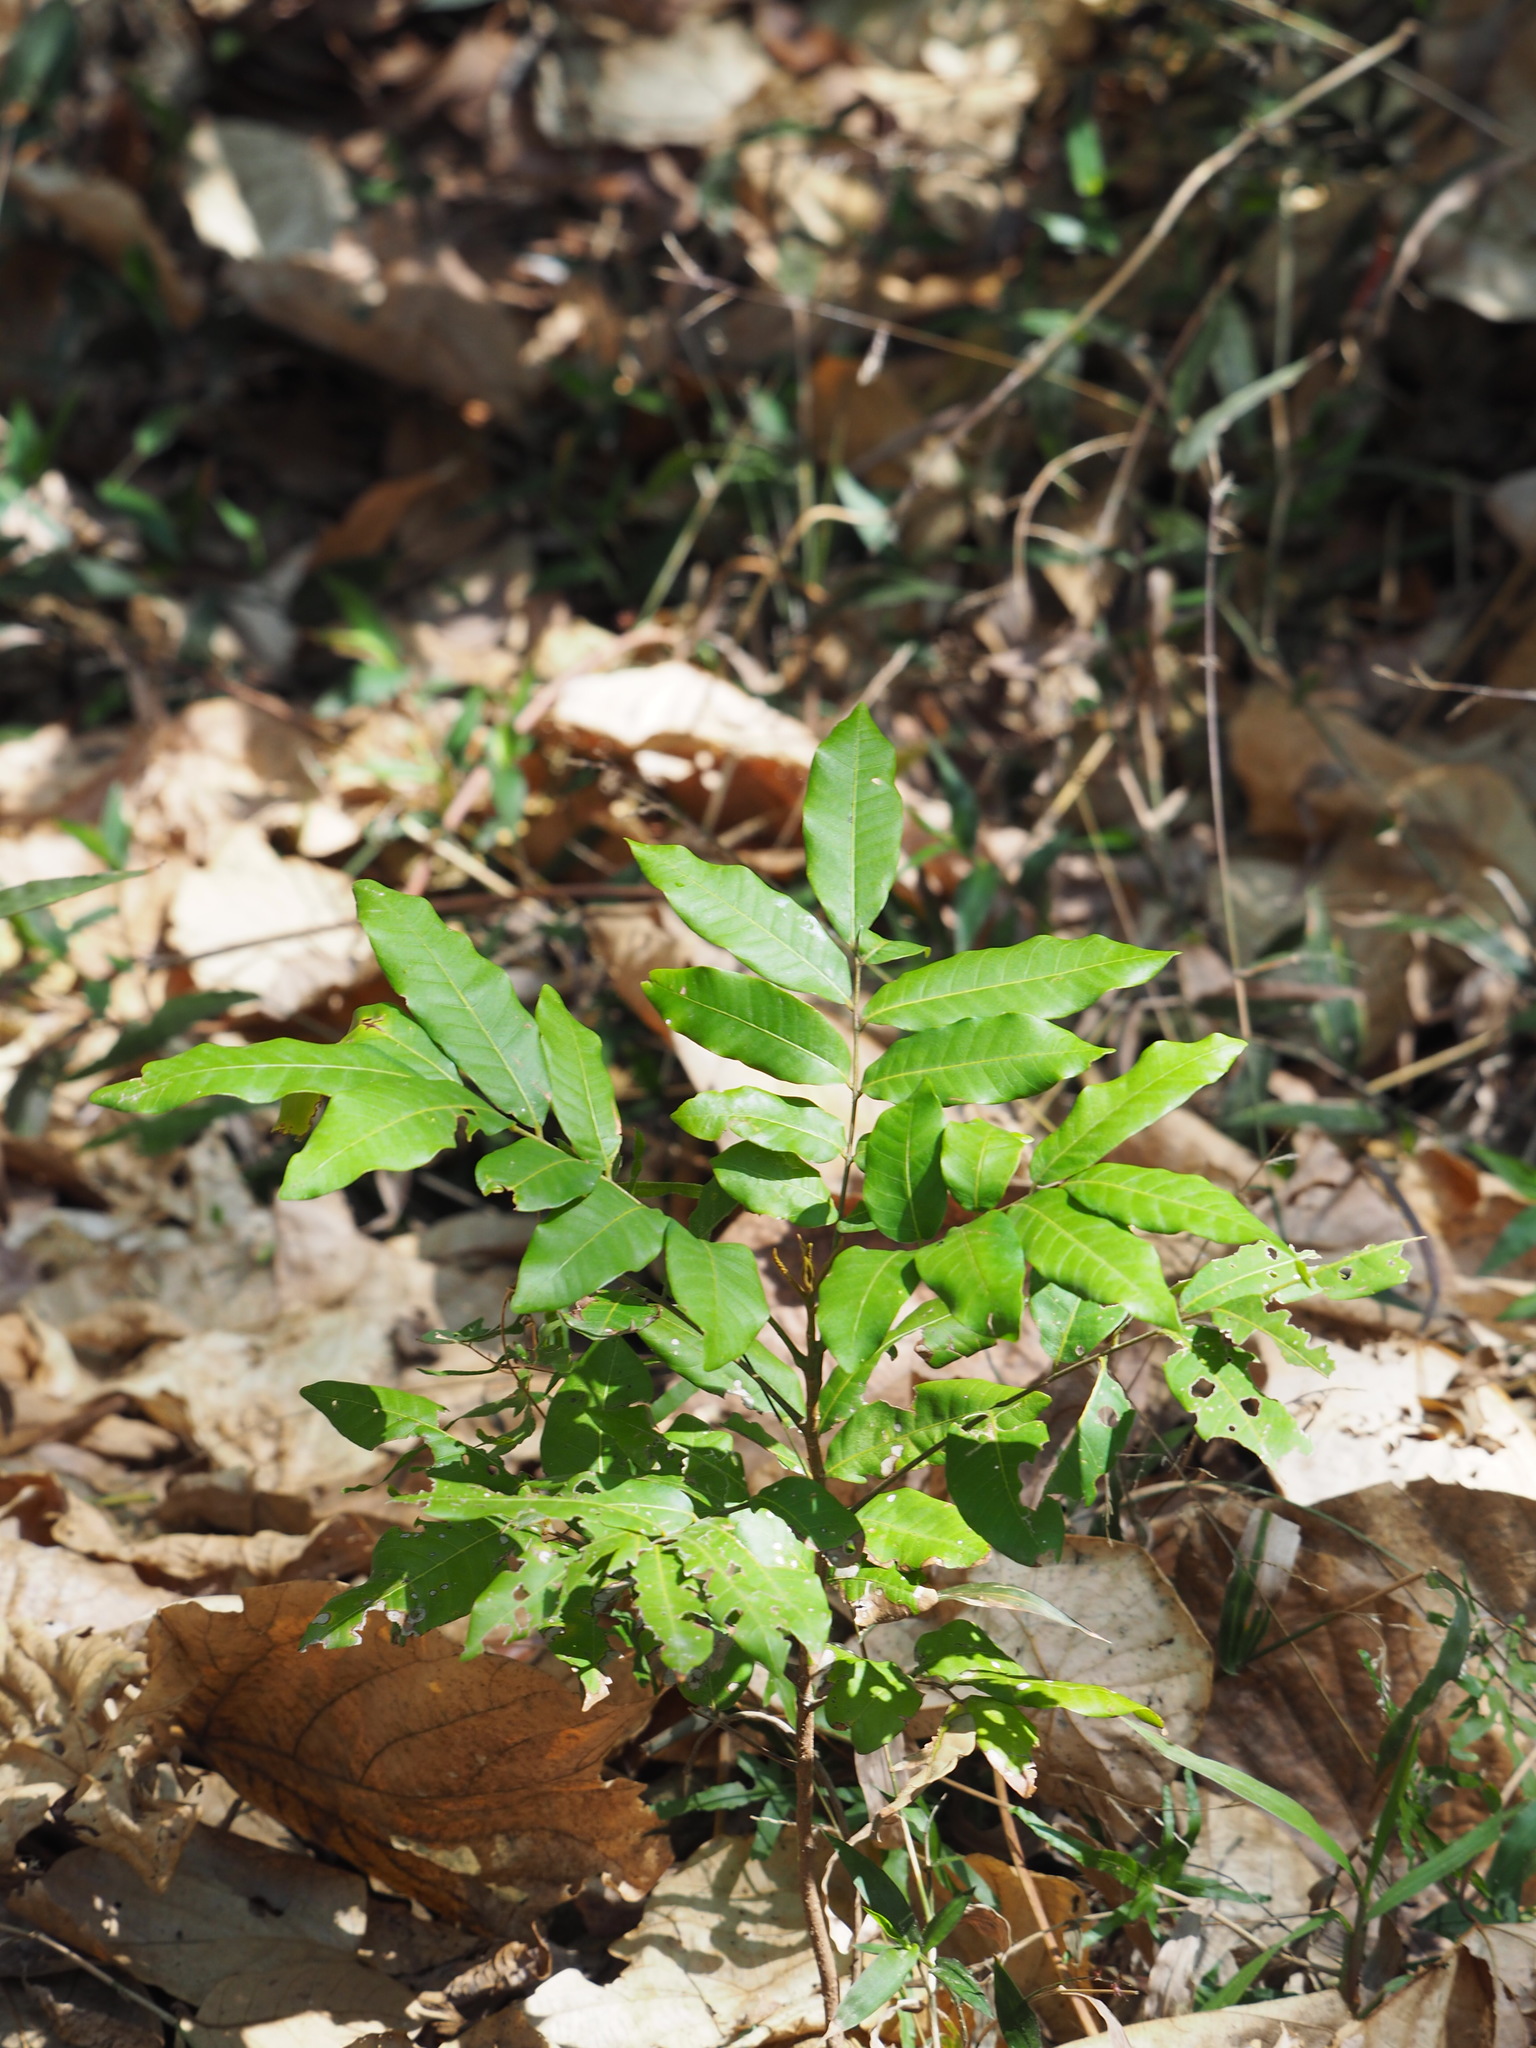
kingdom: Plantae
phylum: Tracheophyta
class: Magnoliopsida
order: Sapindales
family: Sapindaceae
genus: Dimocarpus
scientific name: Dimocarpus longan
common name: Longan
